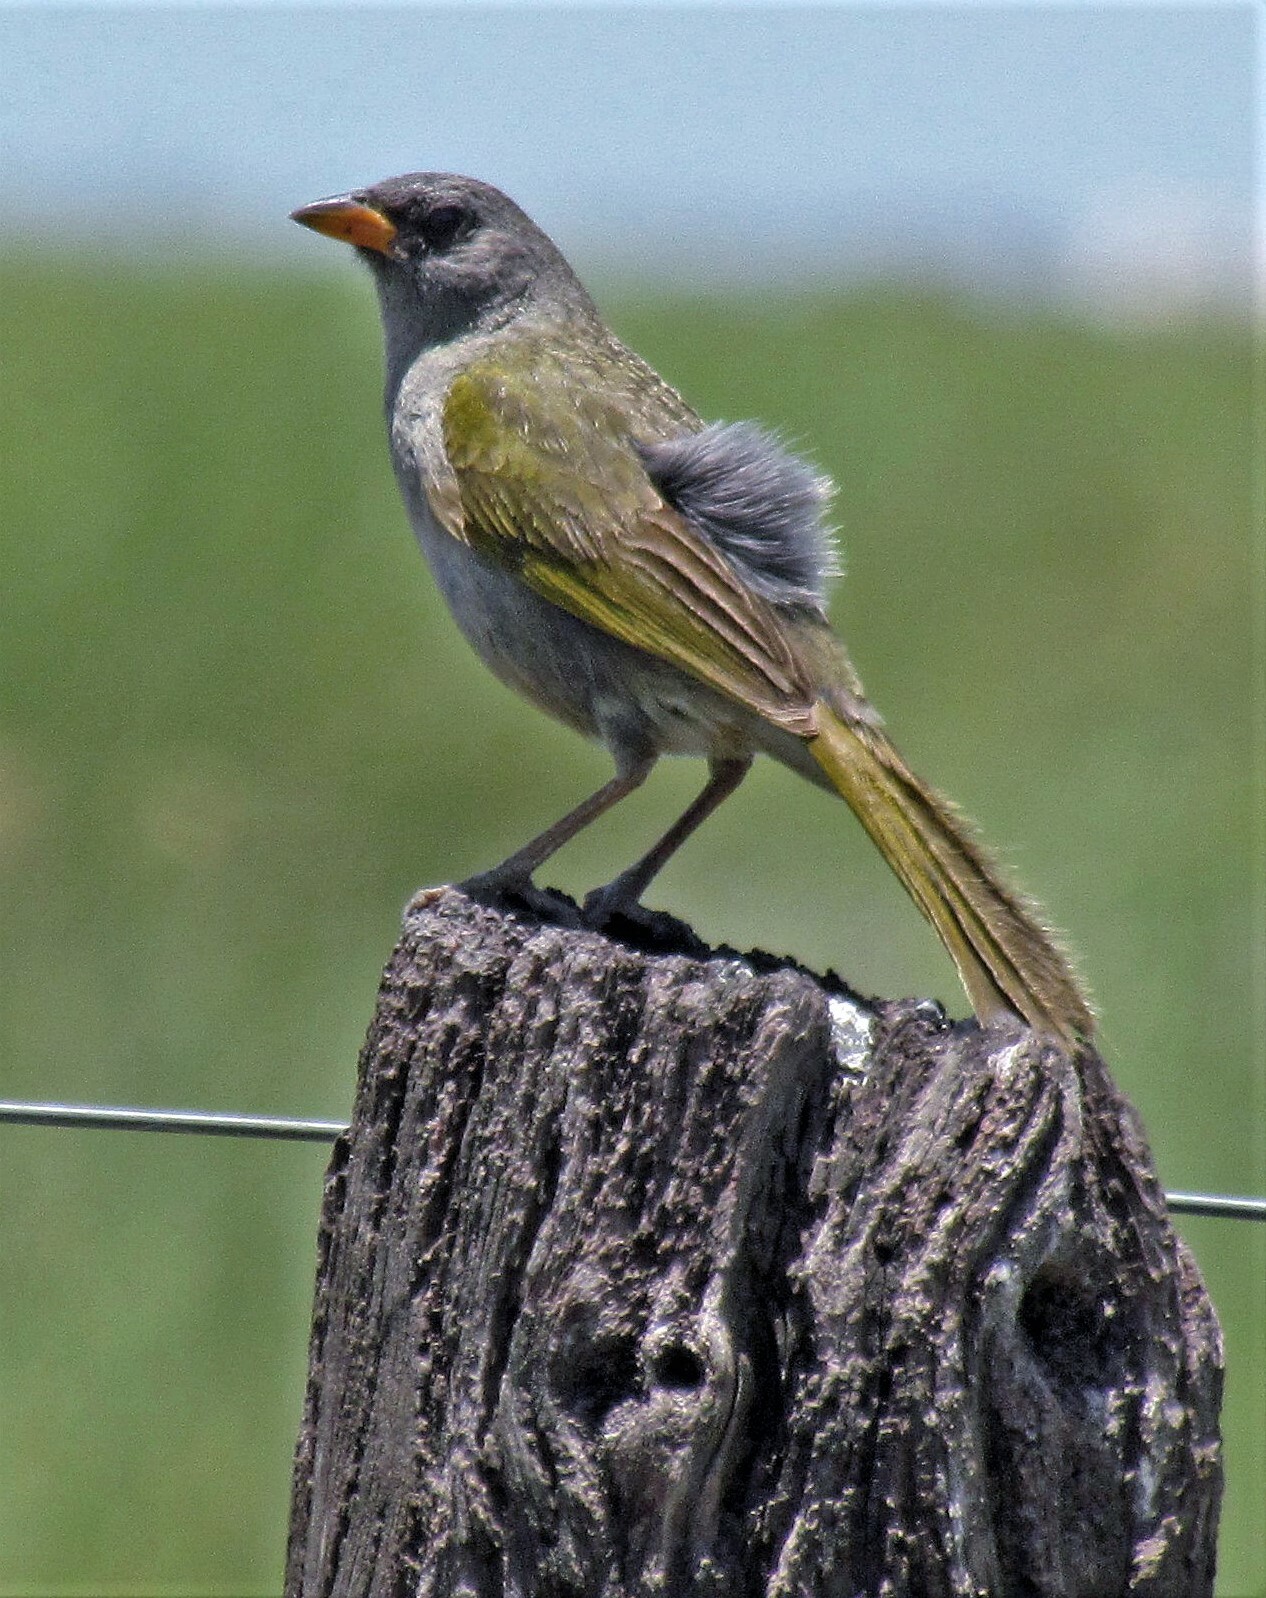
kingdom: Animalia
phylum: Chordata
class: Aves
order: Passeriformes
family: Thraupidae
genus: Embernagra
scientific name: Embernagra platensis
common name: Pampa finch
